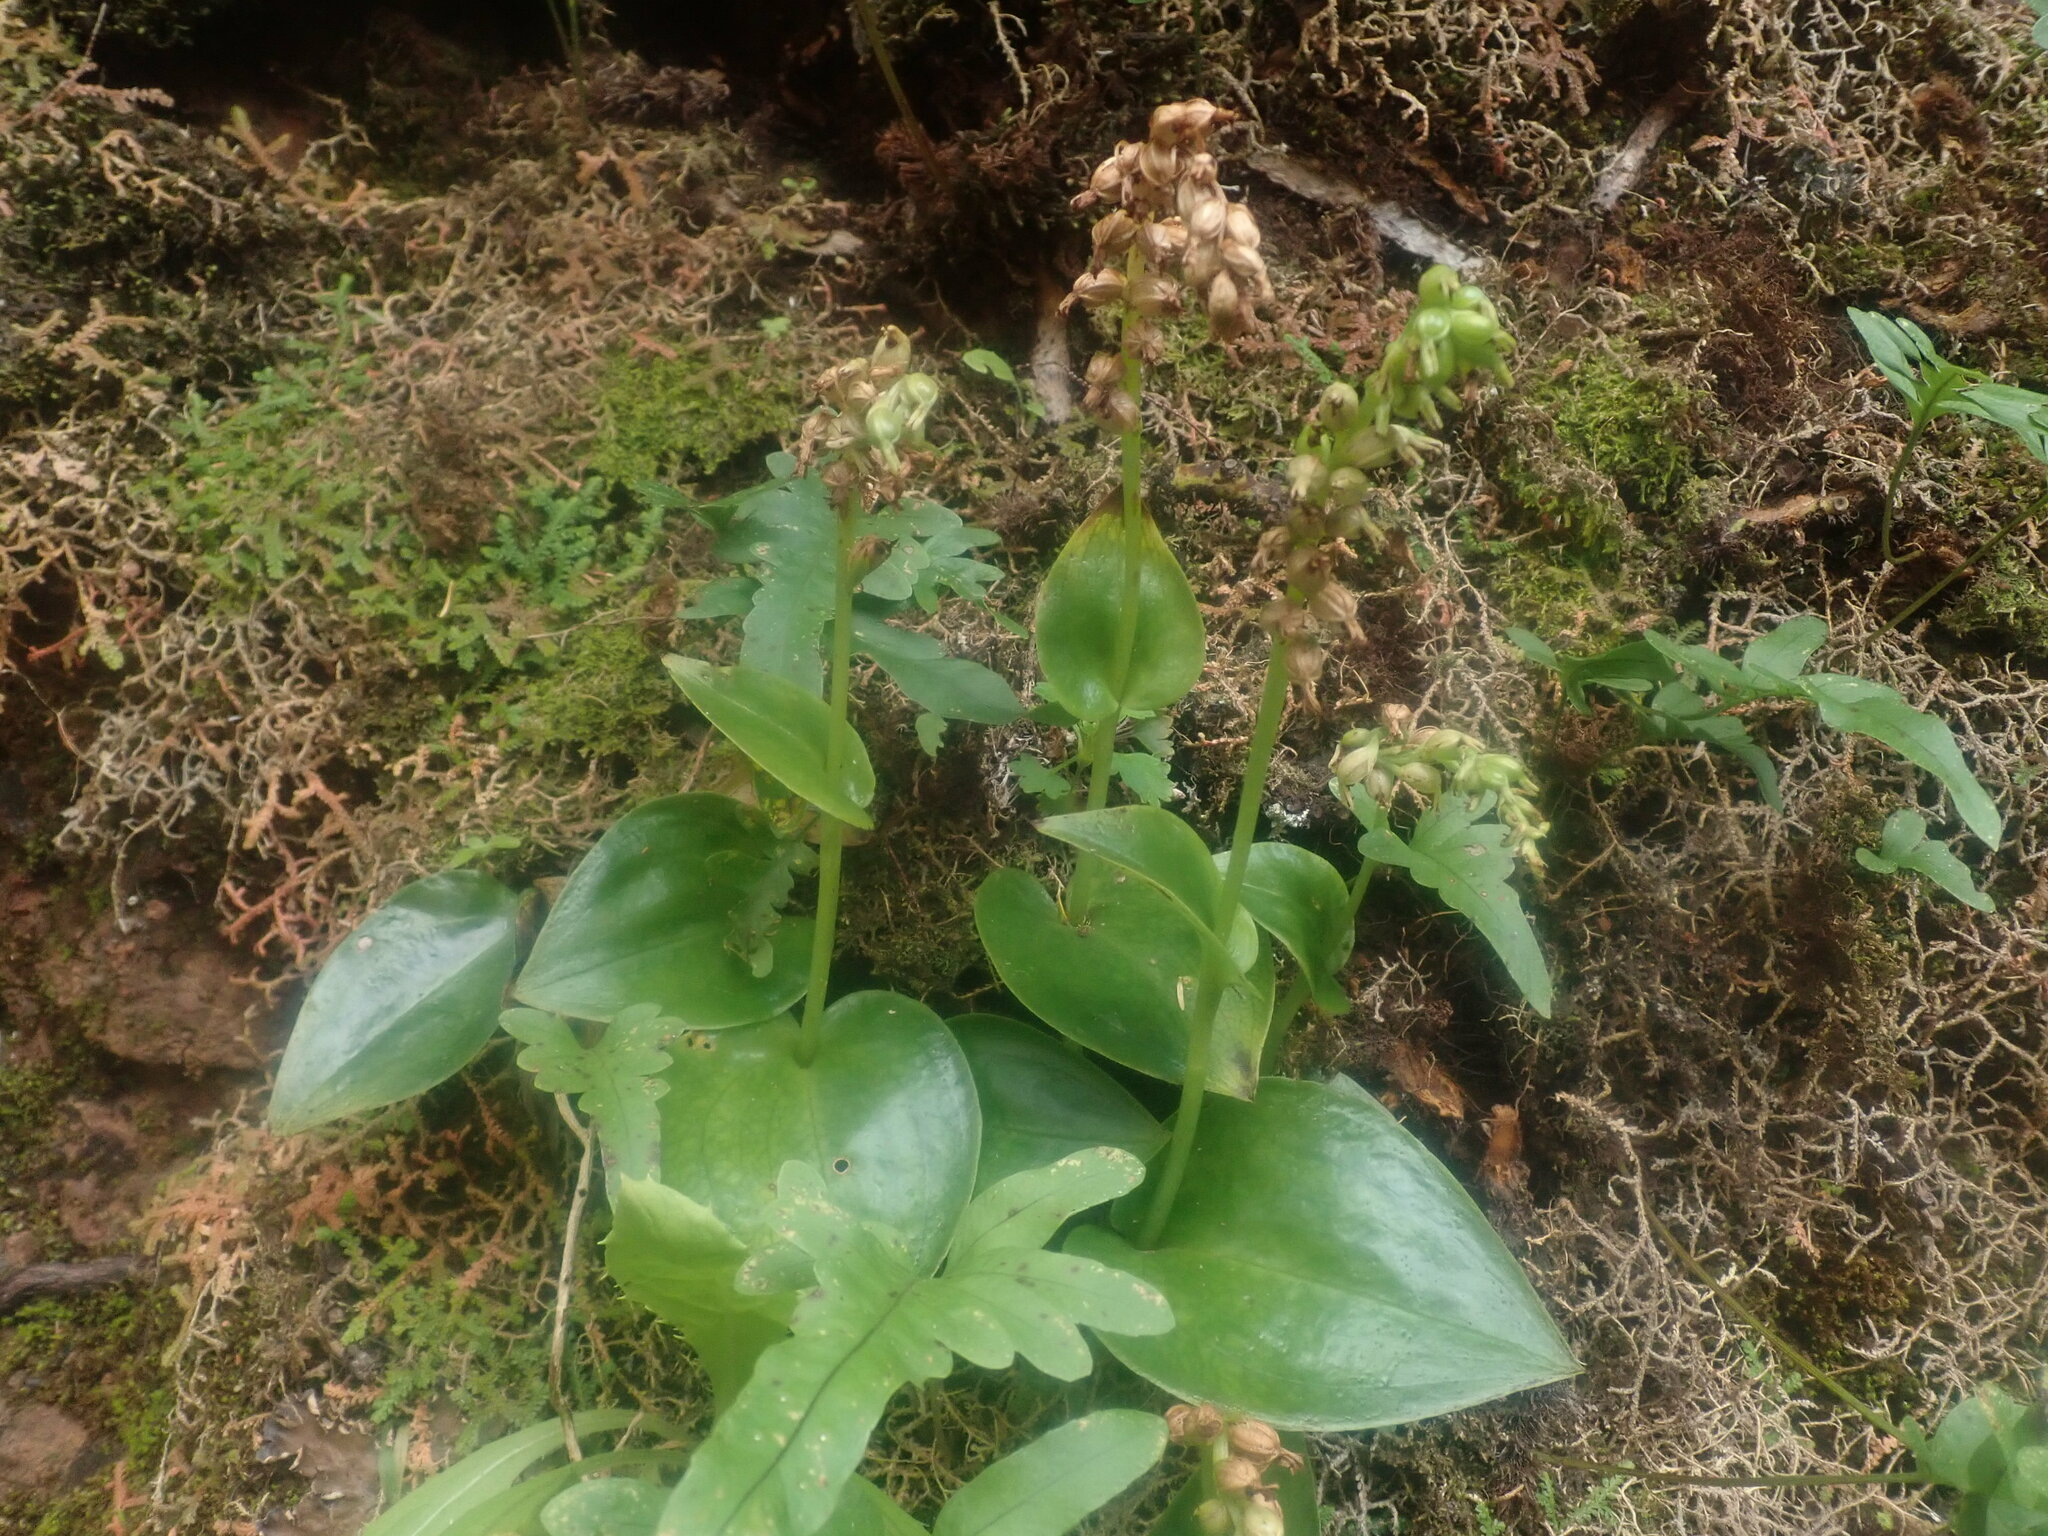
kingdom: Plantae
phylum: Tracheophyta
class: Liliopsida
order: Asparagales
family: Orchidaceae
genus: Gennaria
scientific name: Gennaria diphylla
